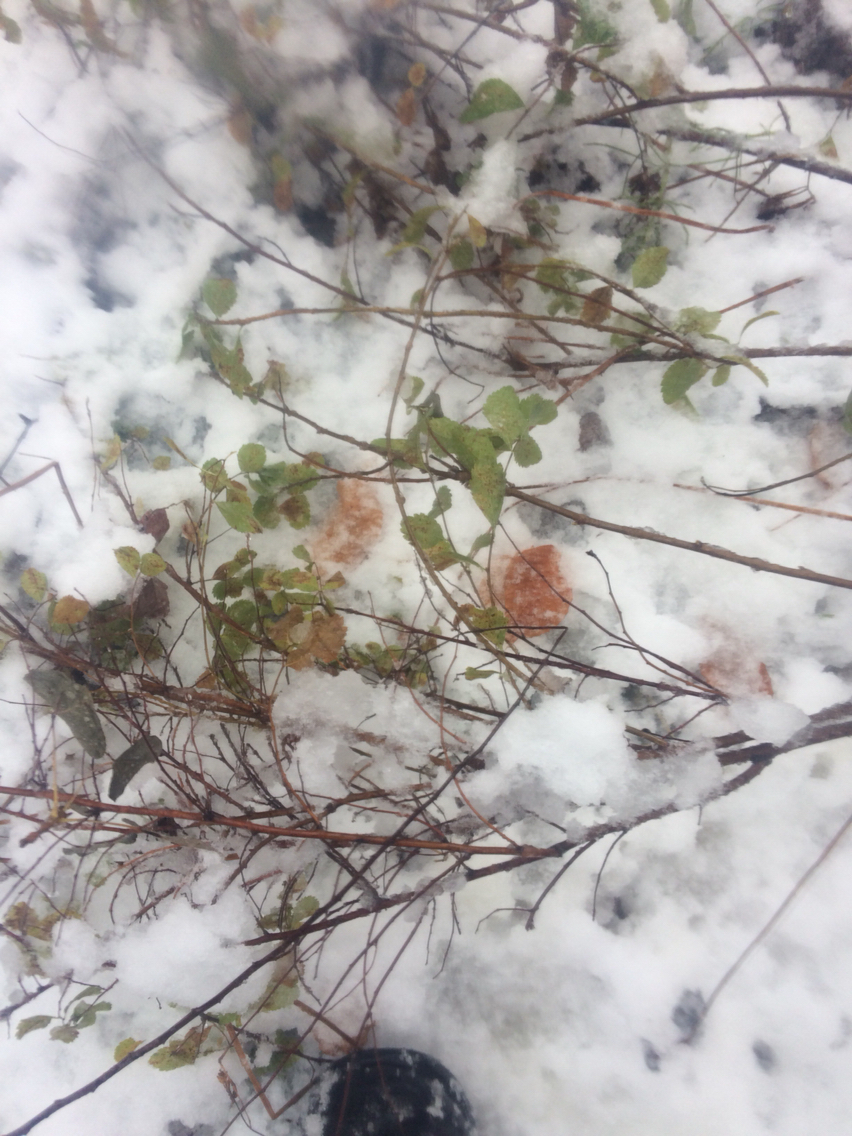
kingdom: Plantae
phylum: Tracheophyta
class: Magnoliopsida
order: Rosales
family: Rosaceae
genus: Spiraea
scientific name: Spiraea alba
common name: Pale bridewort
